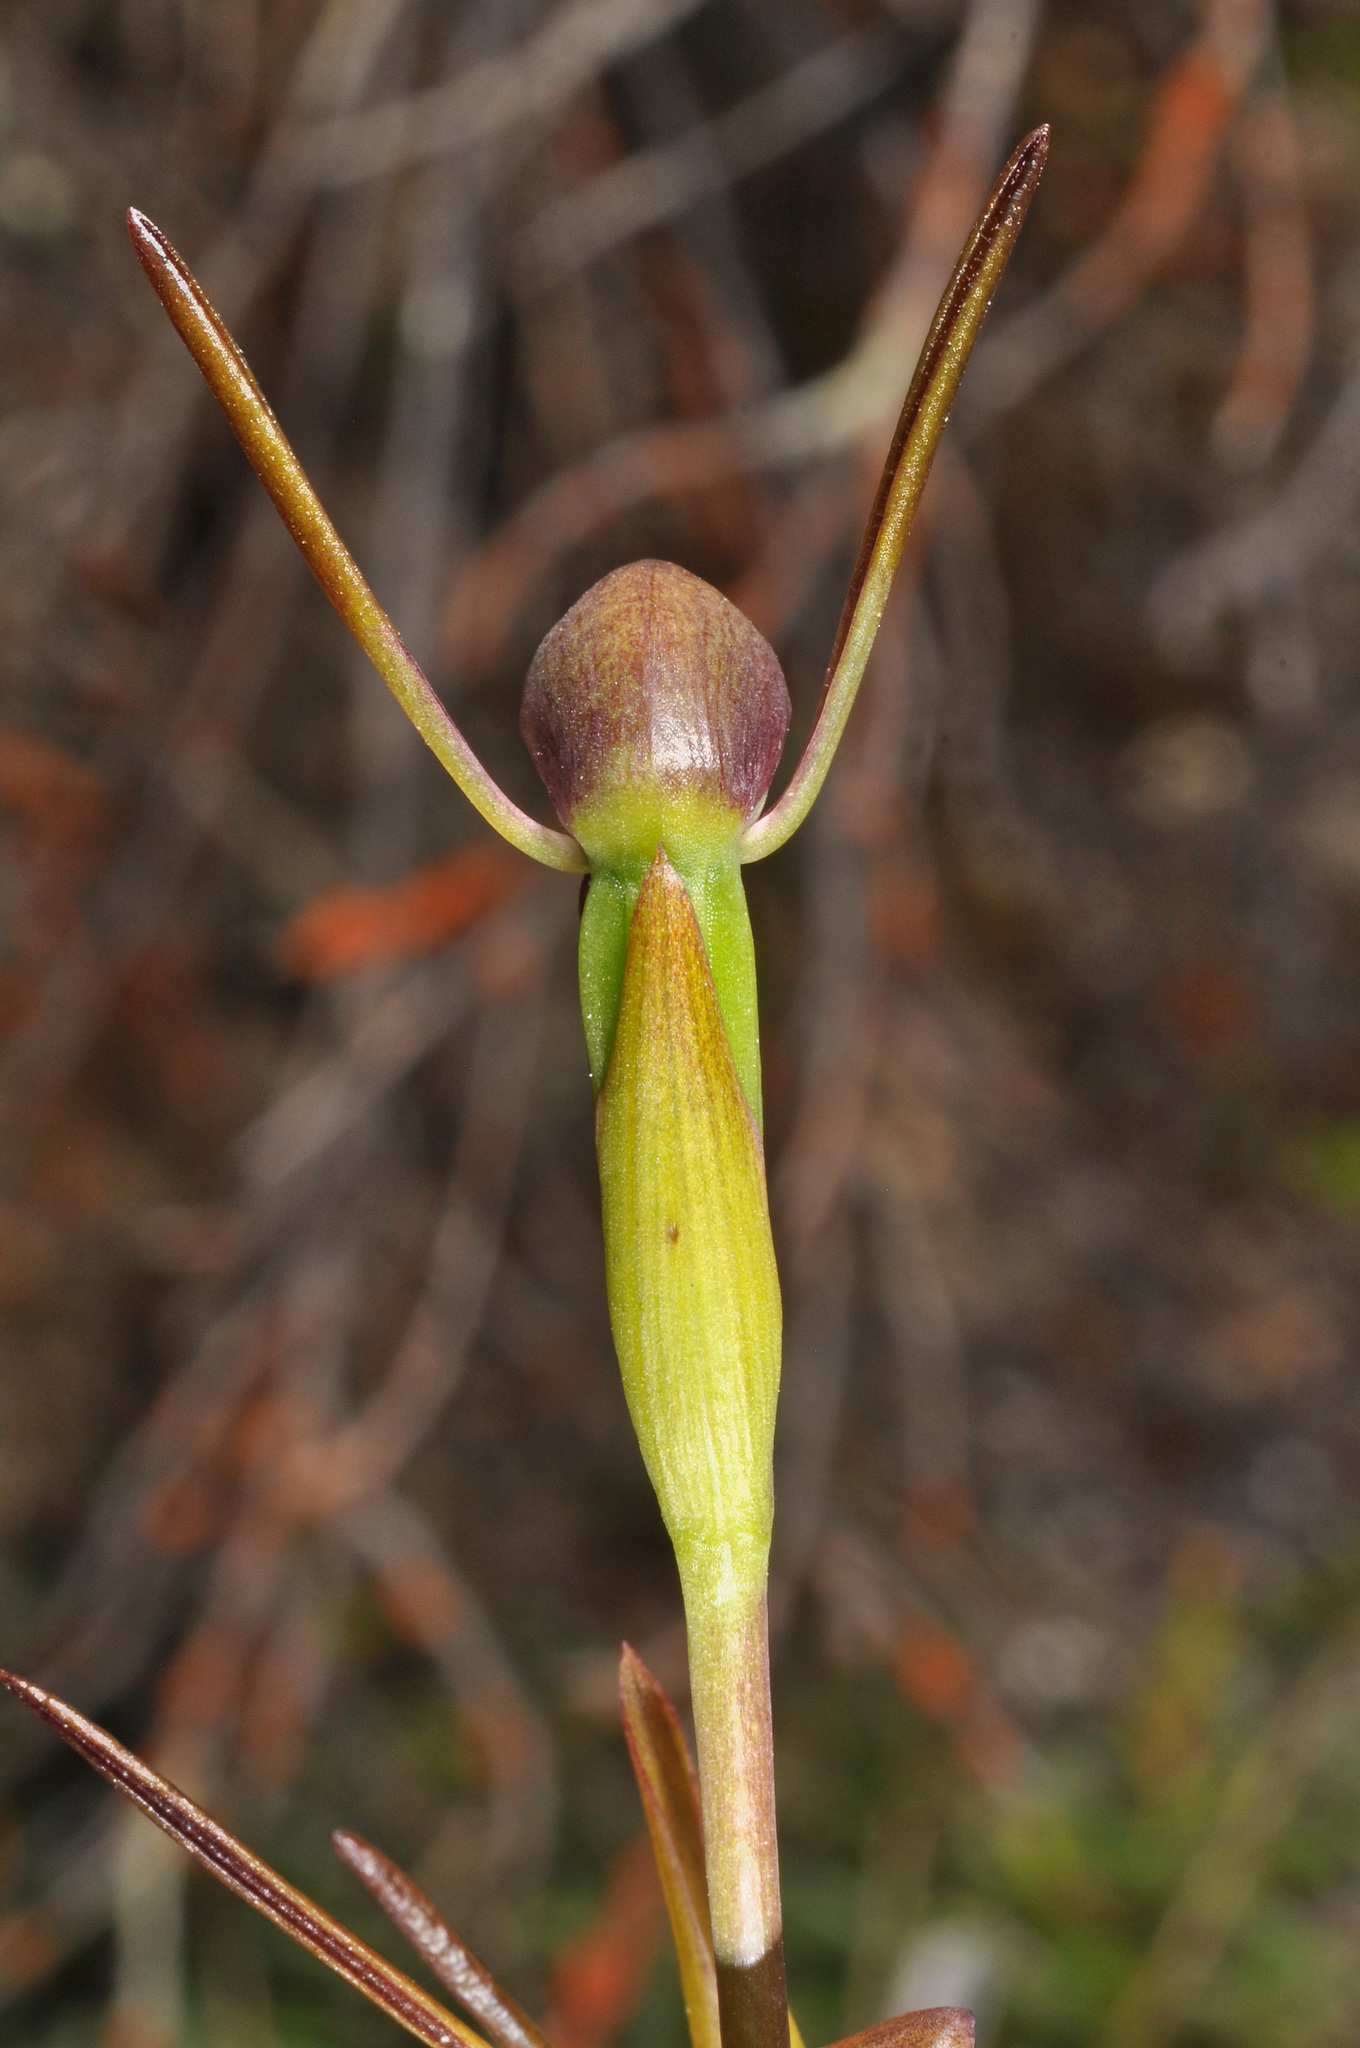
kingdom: Plantae
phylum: Tracheophyta
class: Liliopsida
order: Asparagales
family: Orchidaceae
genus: Orthoceras
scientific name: Orthoceras novae-zeelandiae
